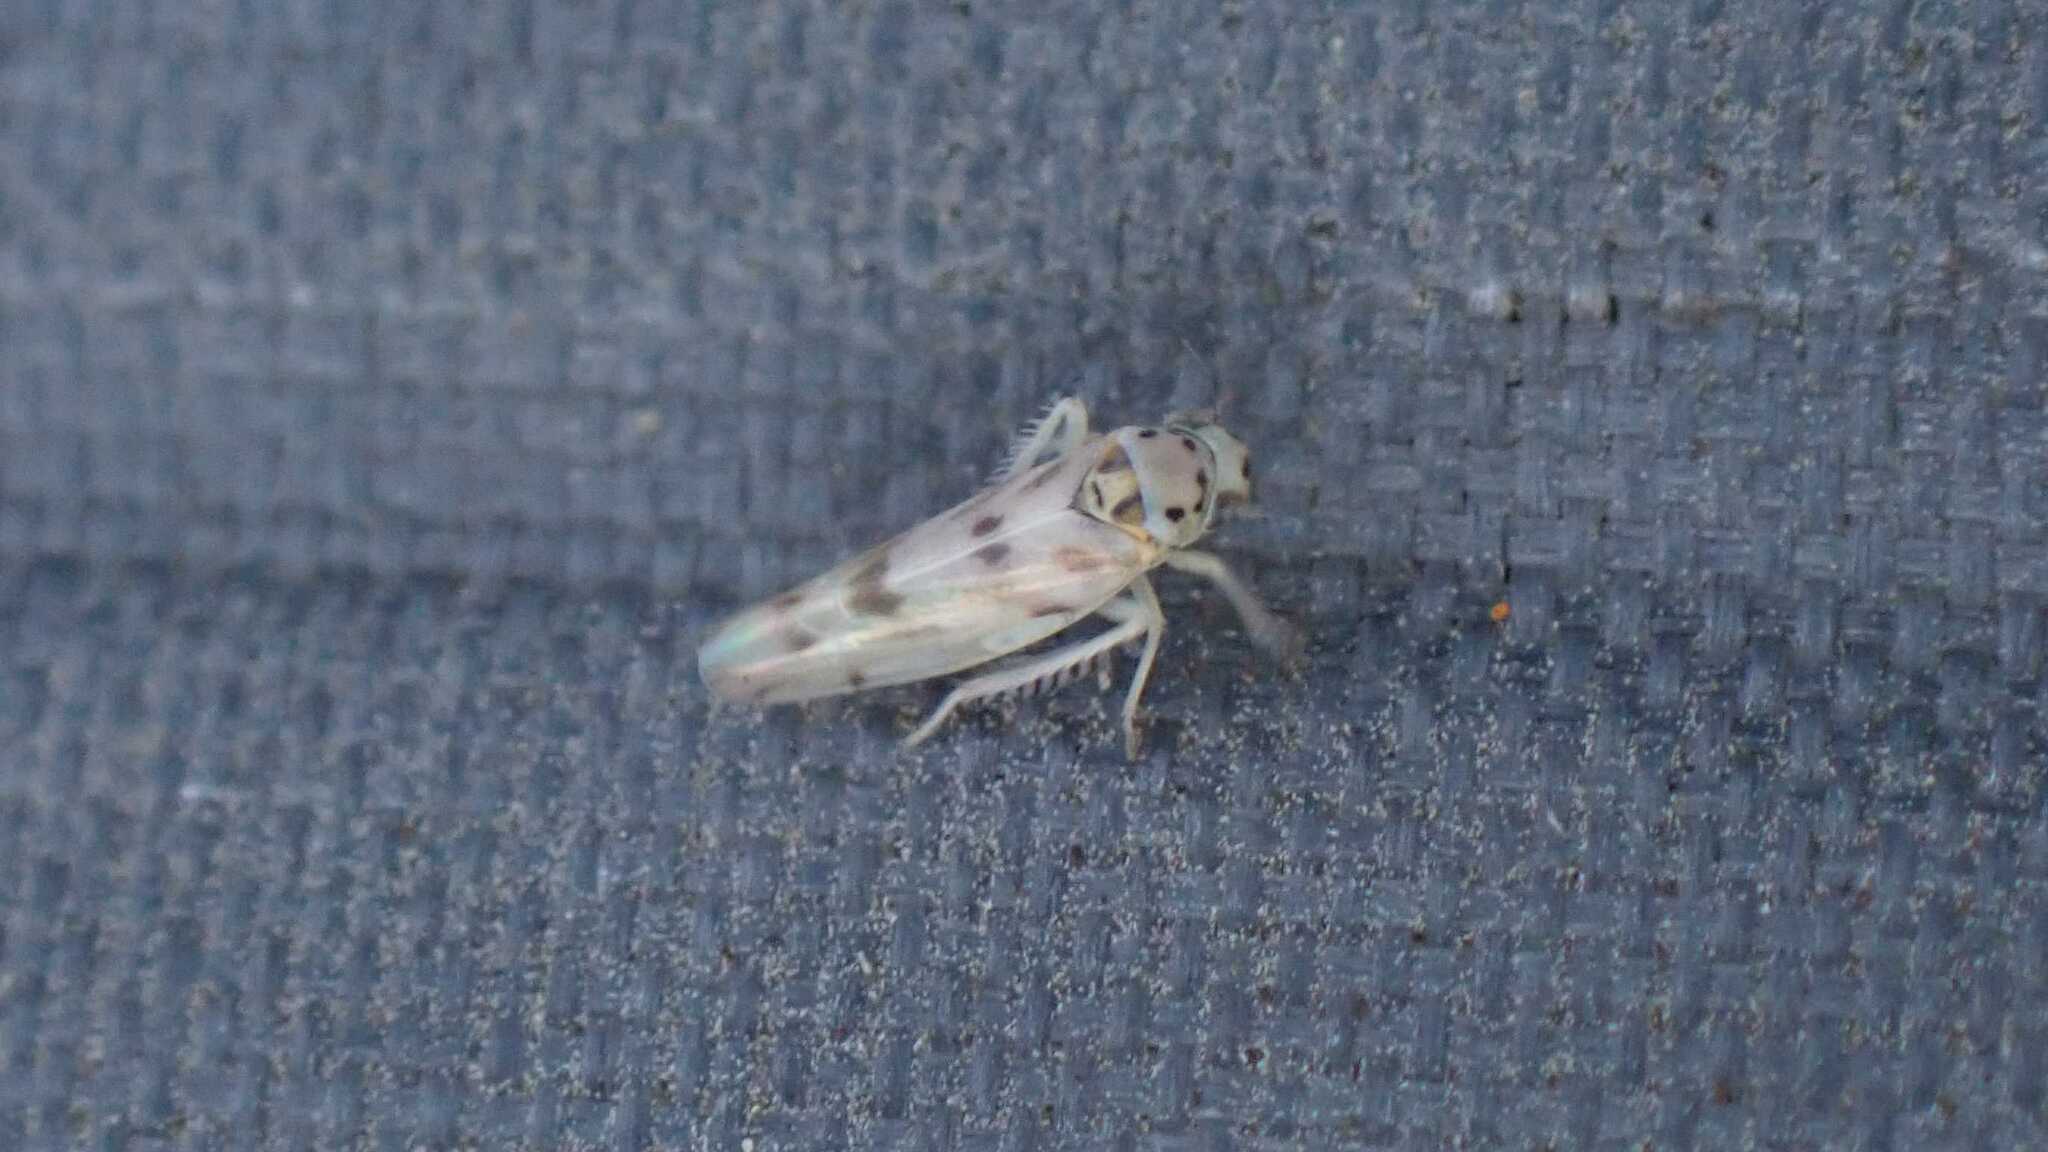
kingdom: Animalia
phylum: Arthropoda
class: Insecta
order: Hemiptera
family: Cicadellidae
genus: Linnavuoriana
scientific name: Linnavuoriana decempunctata
